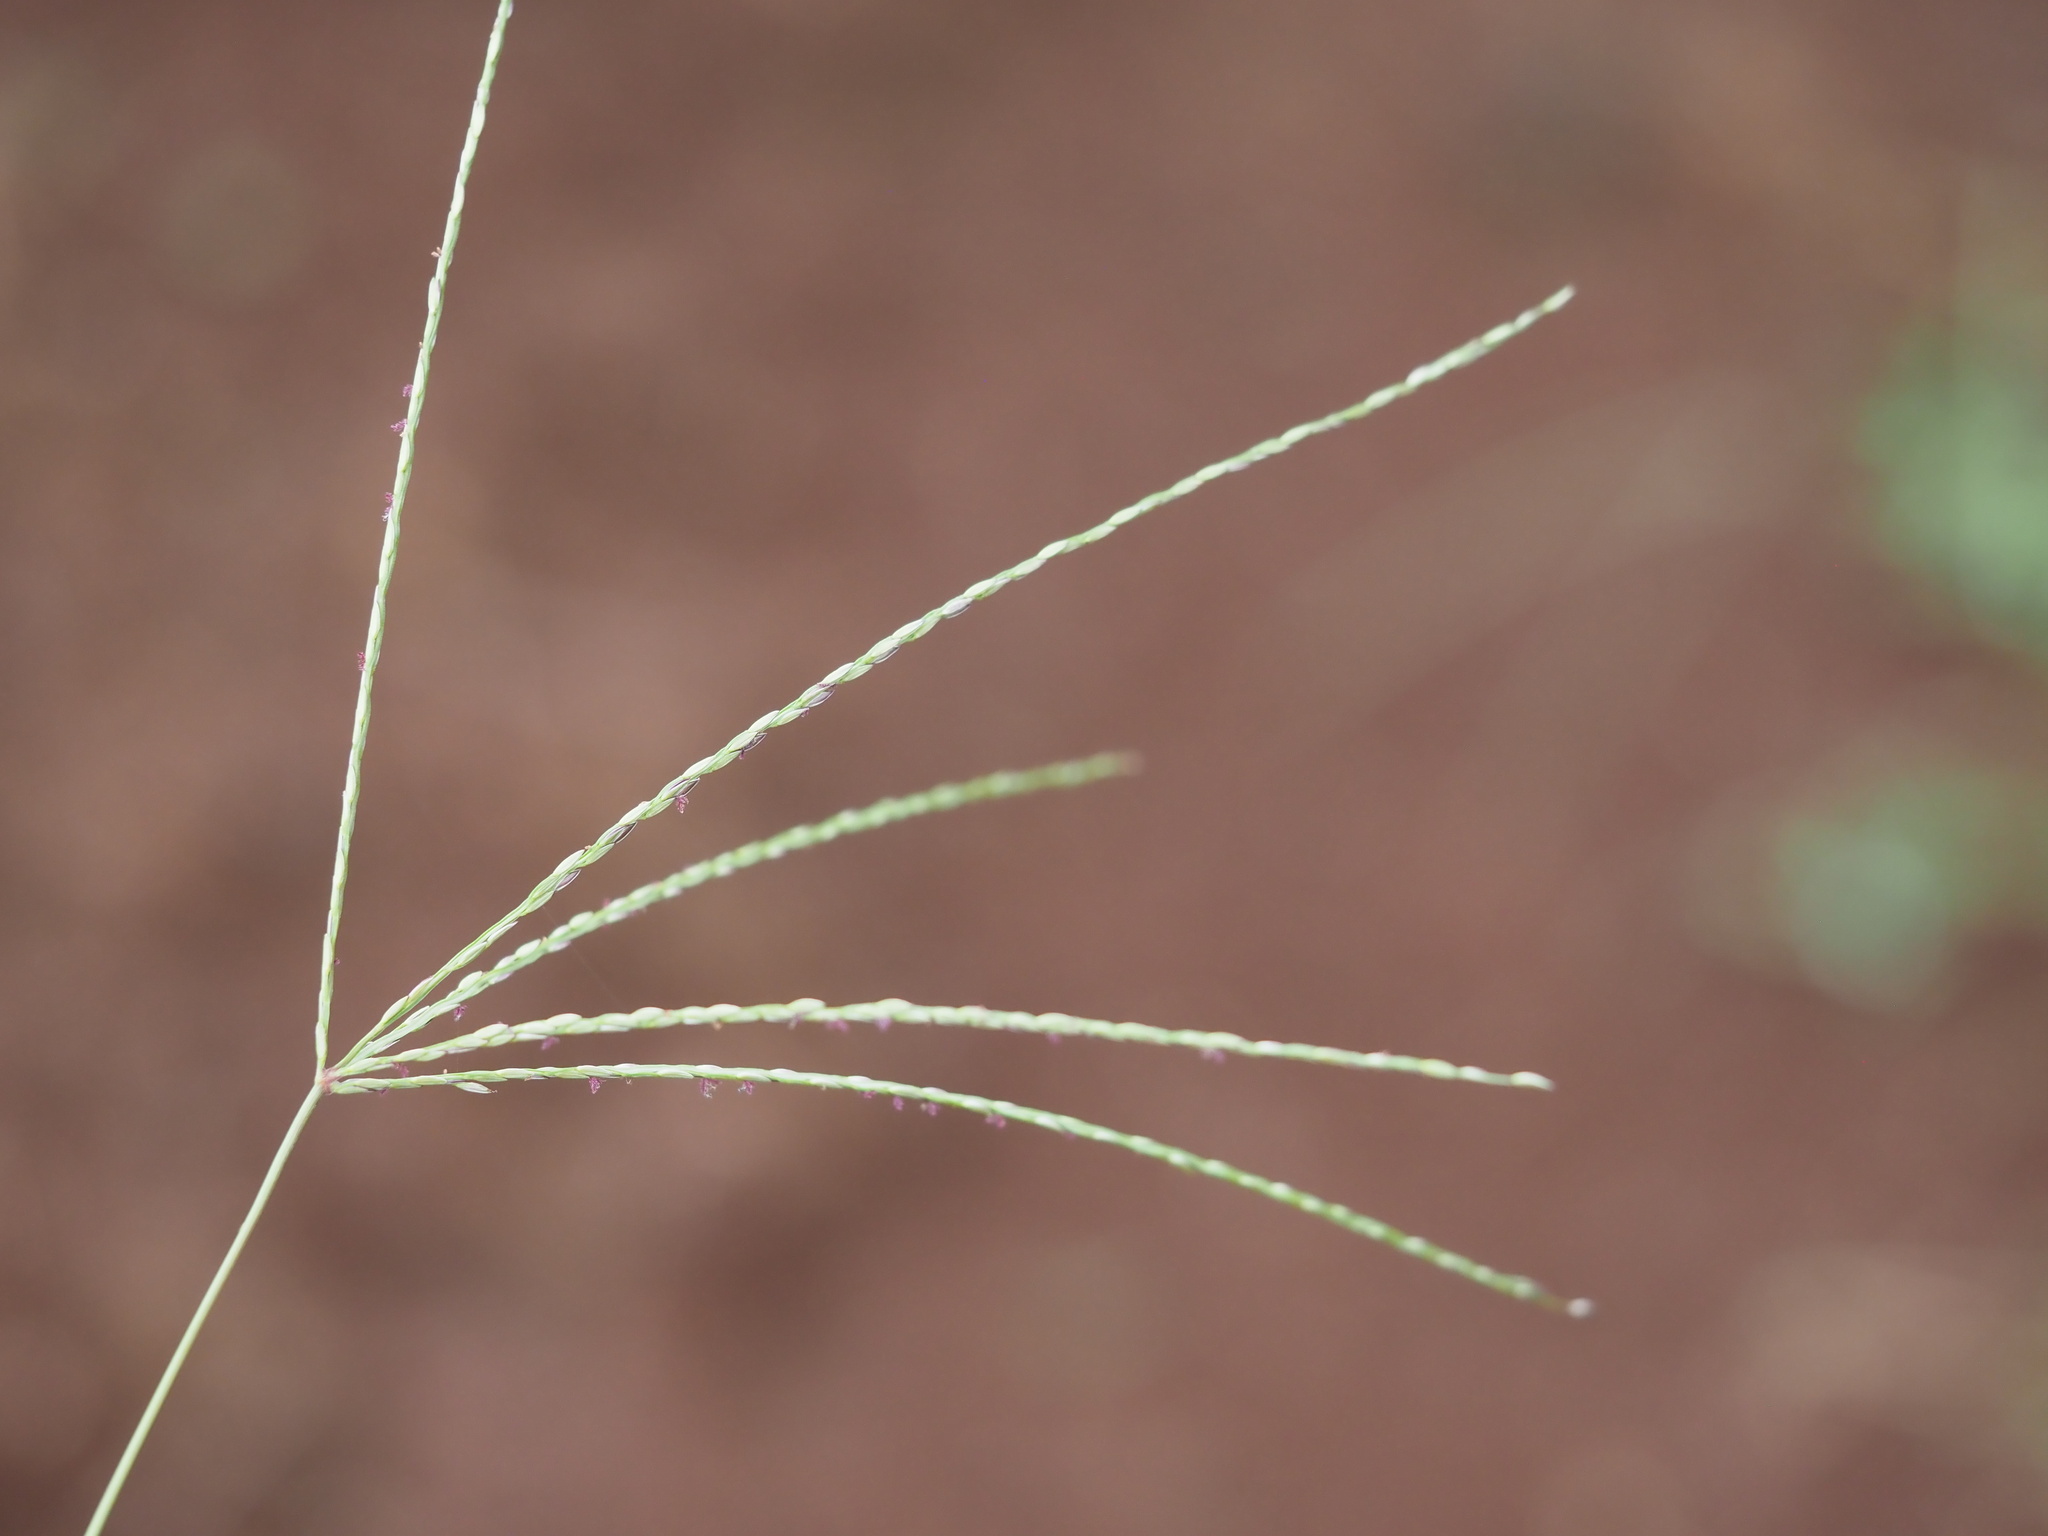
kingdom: Plantae
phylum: Tracheophyta
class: Liliopsida
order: Poales
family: Poaceae
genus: Digitaria
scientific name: Digitaria nuda
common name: Naked crabgrass
